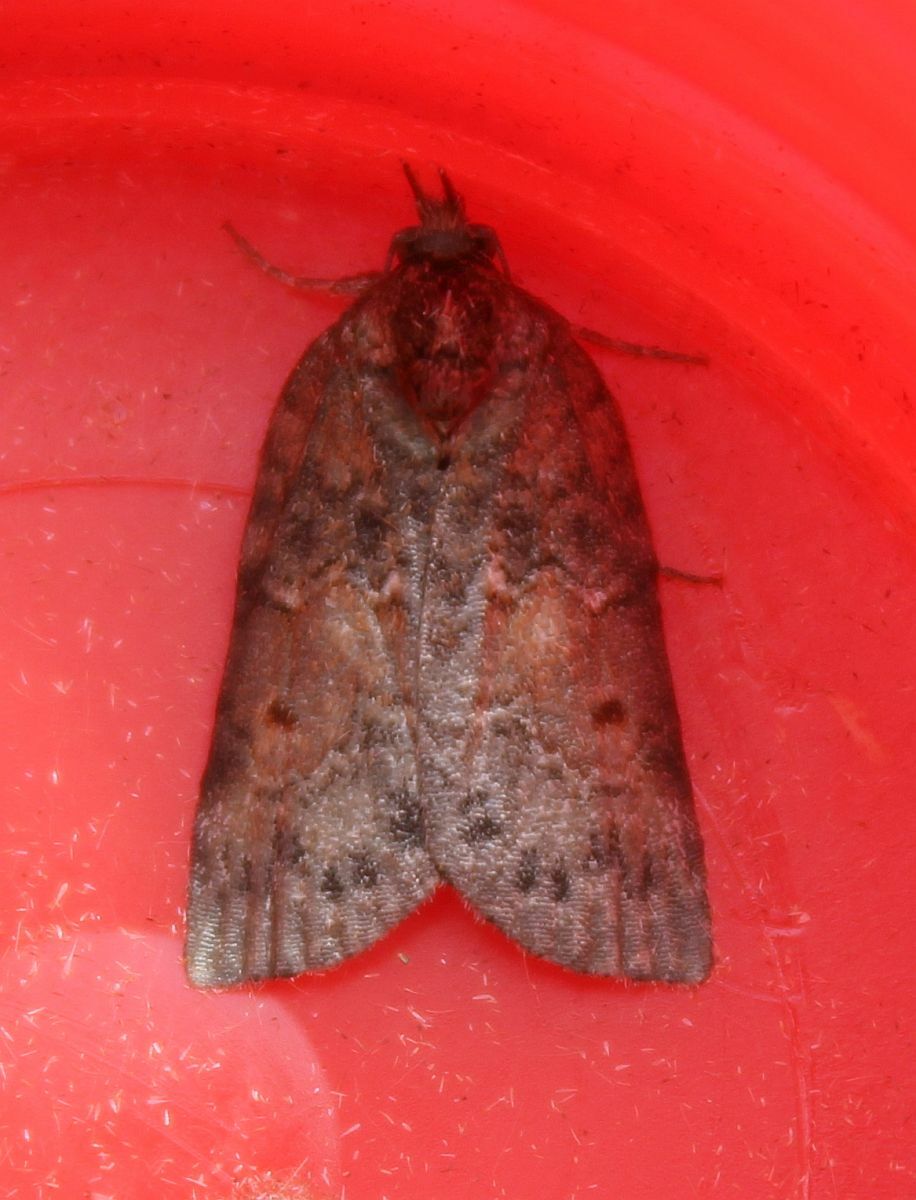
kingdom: Animalia
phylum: Arthropoda
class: Insecta
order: Lepidoptera
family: Nolidae
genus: Nycteola
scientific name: Nycteola revayana
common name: Oak nycteoline
